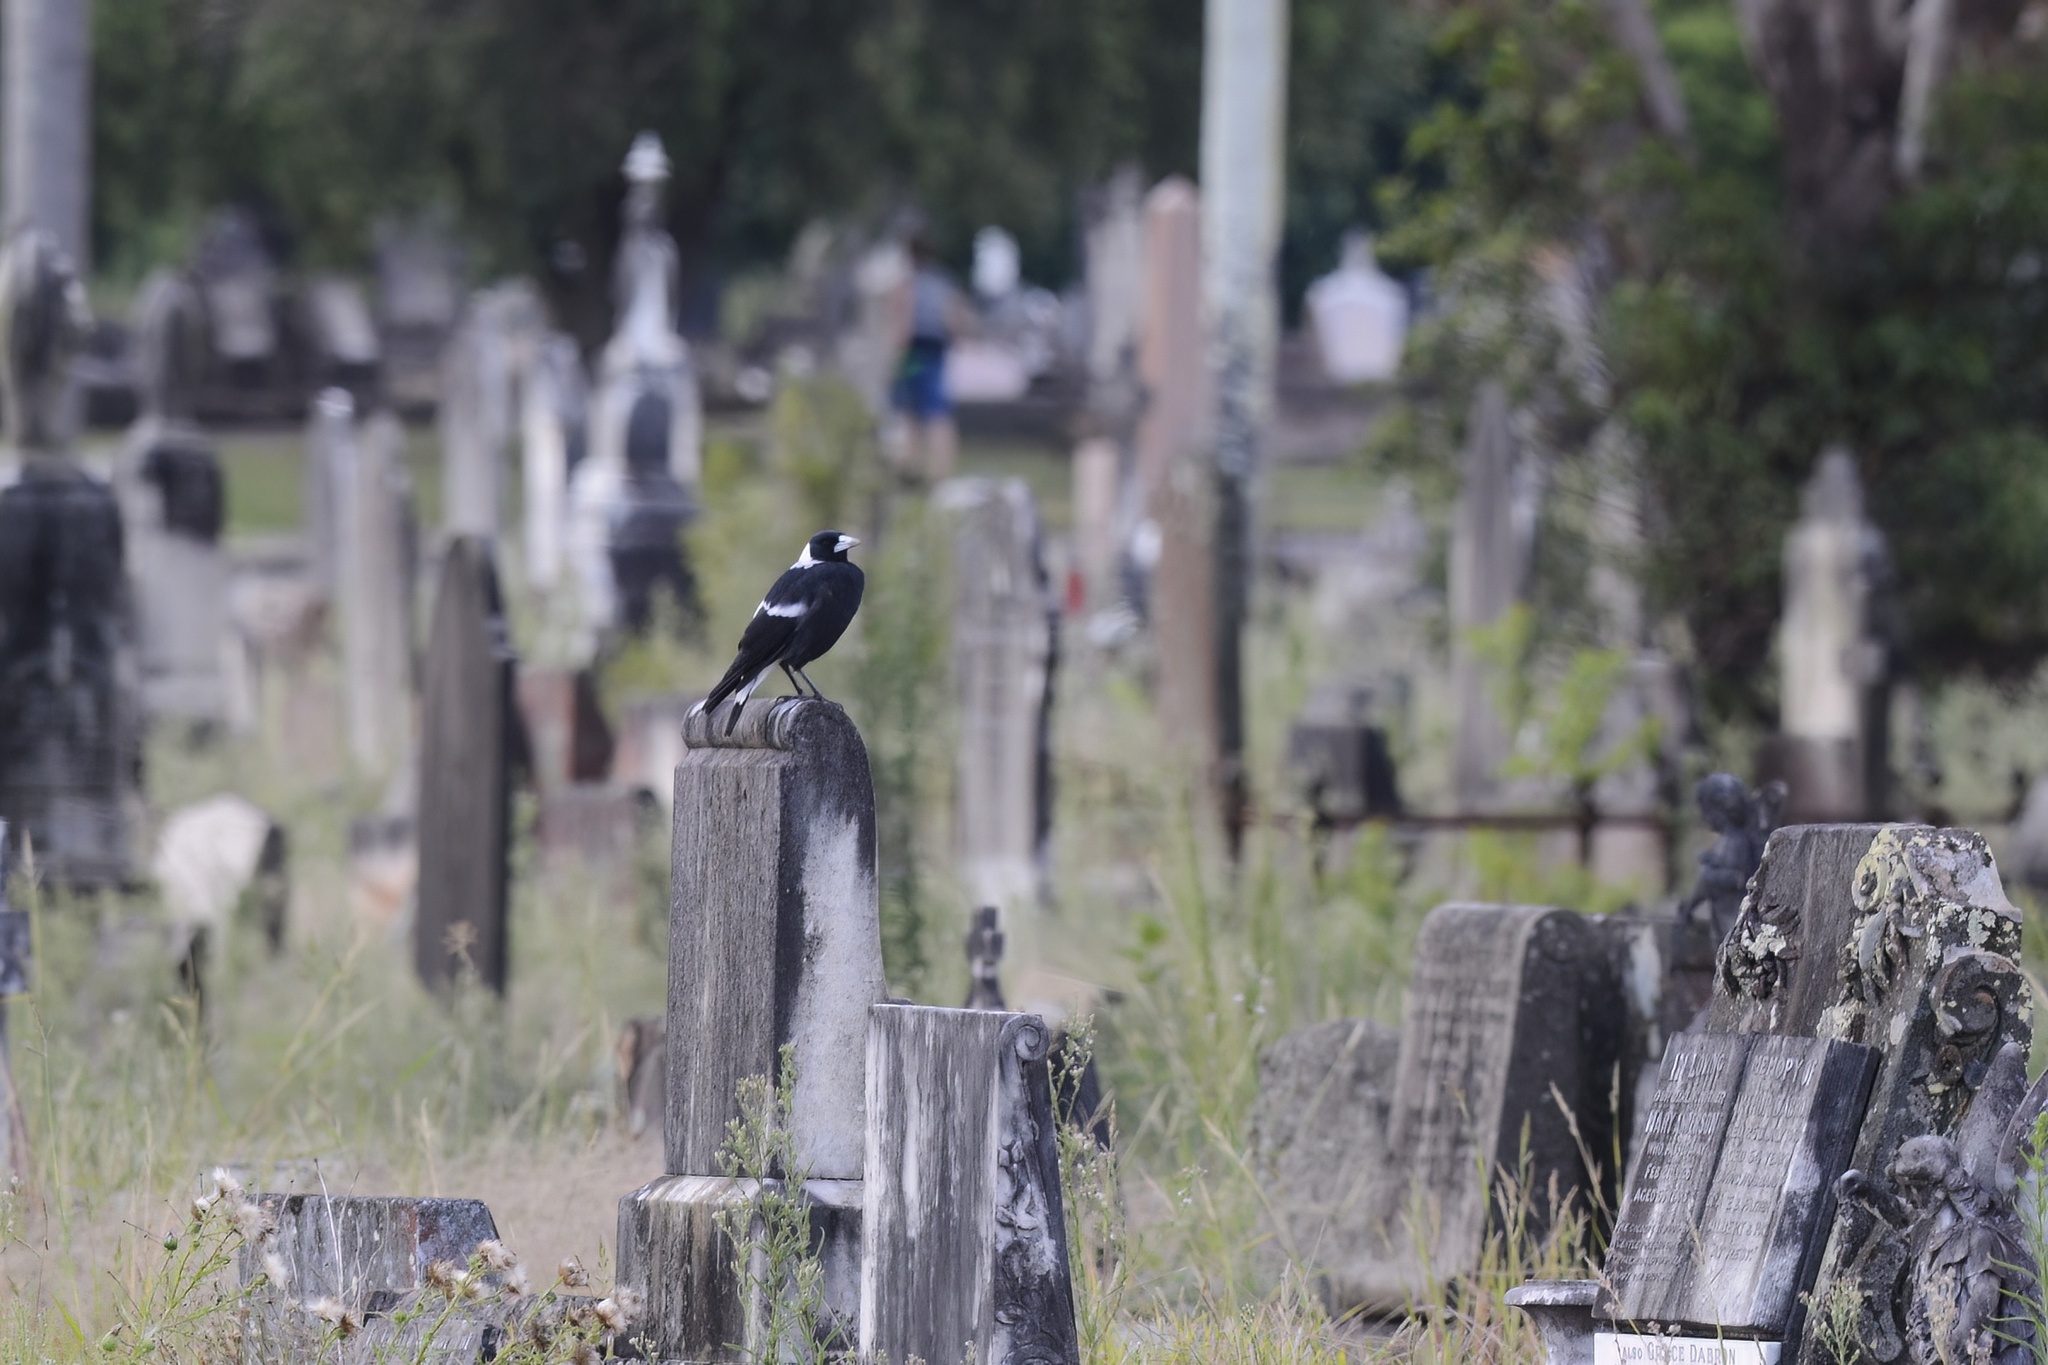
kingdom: Animalia
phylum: Chordata
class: Aves
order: Passeriformes
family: Cracticidae
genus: Gymnorhina
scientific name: Gymnorhina tibicen
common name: Australian magpie
